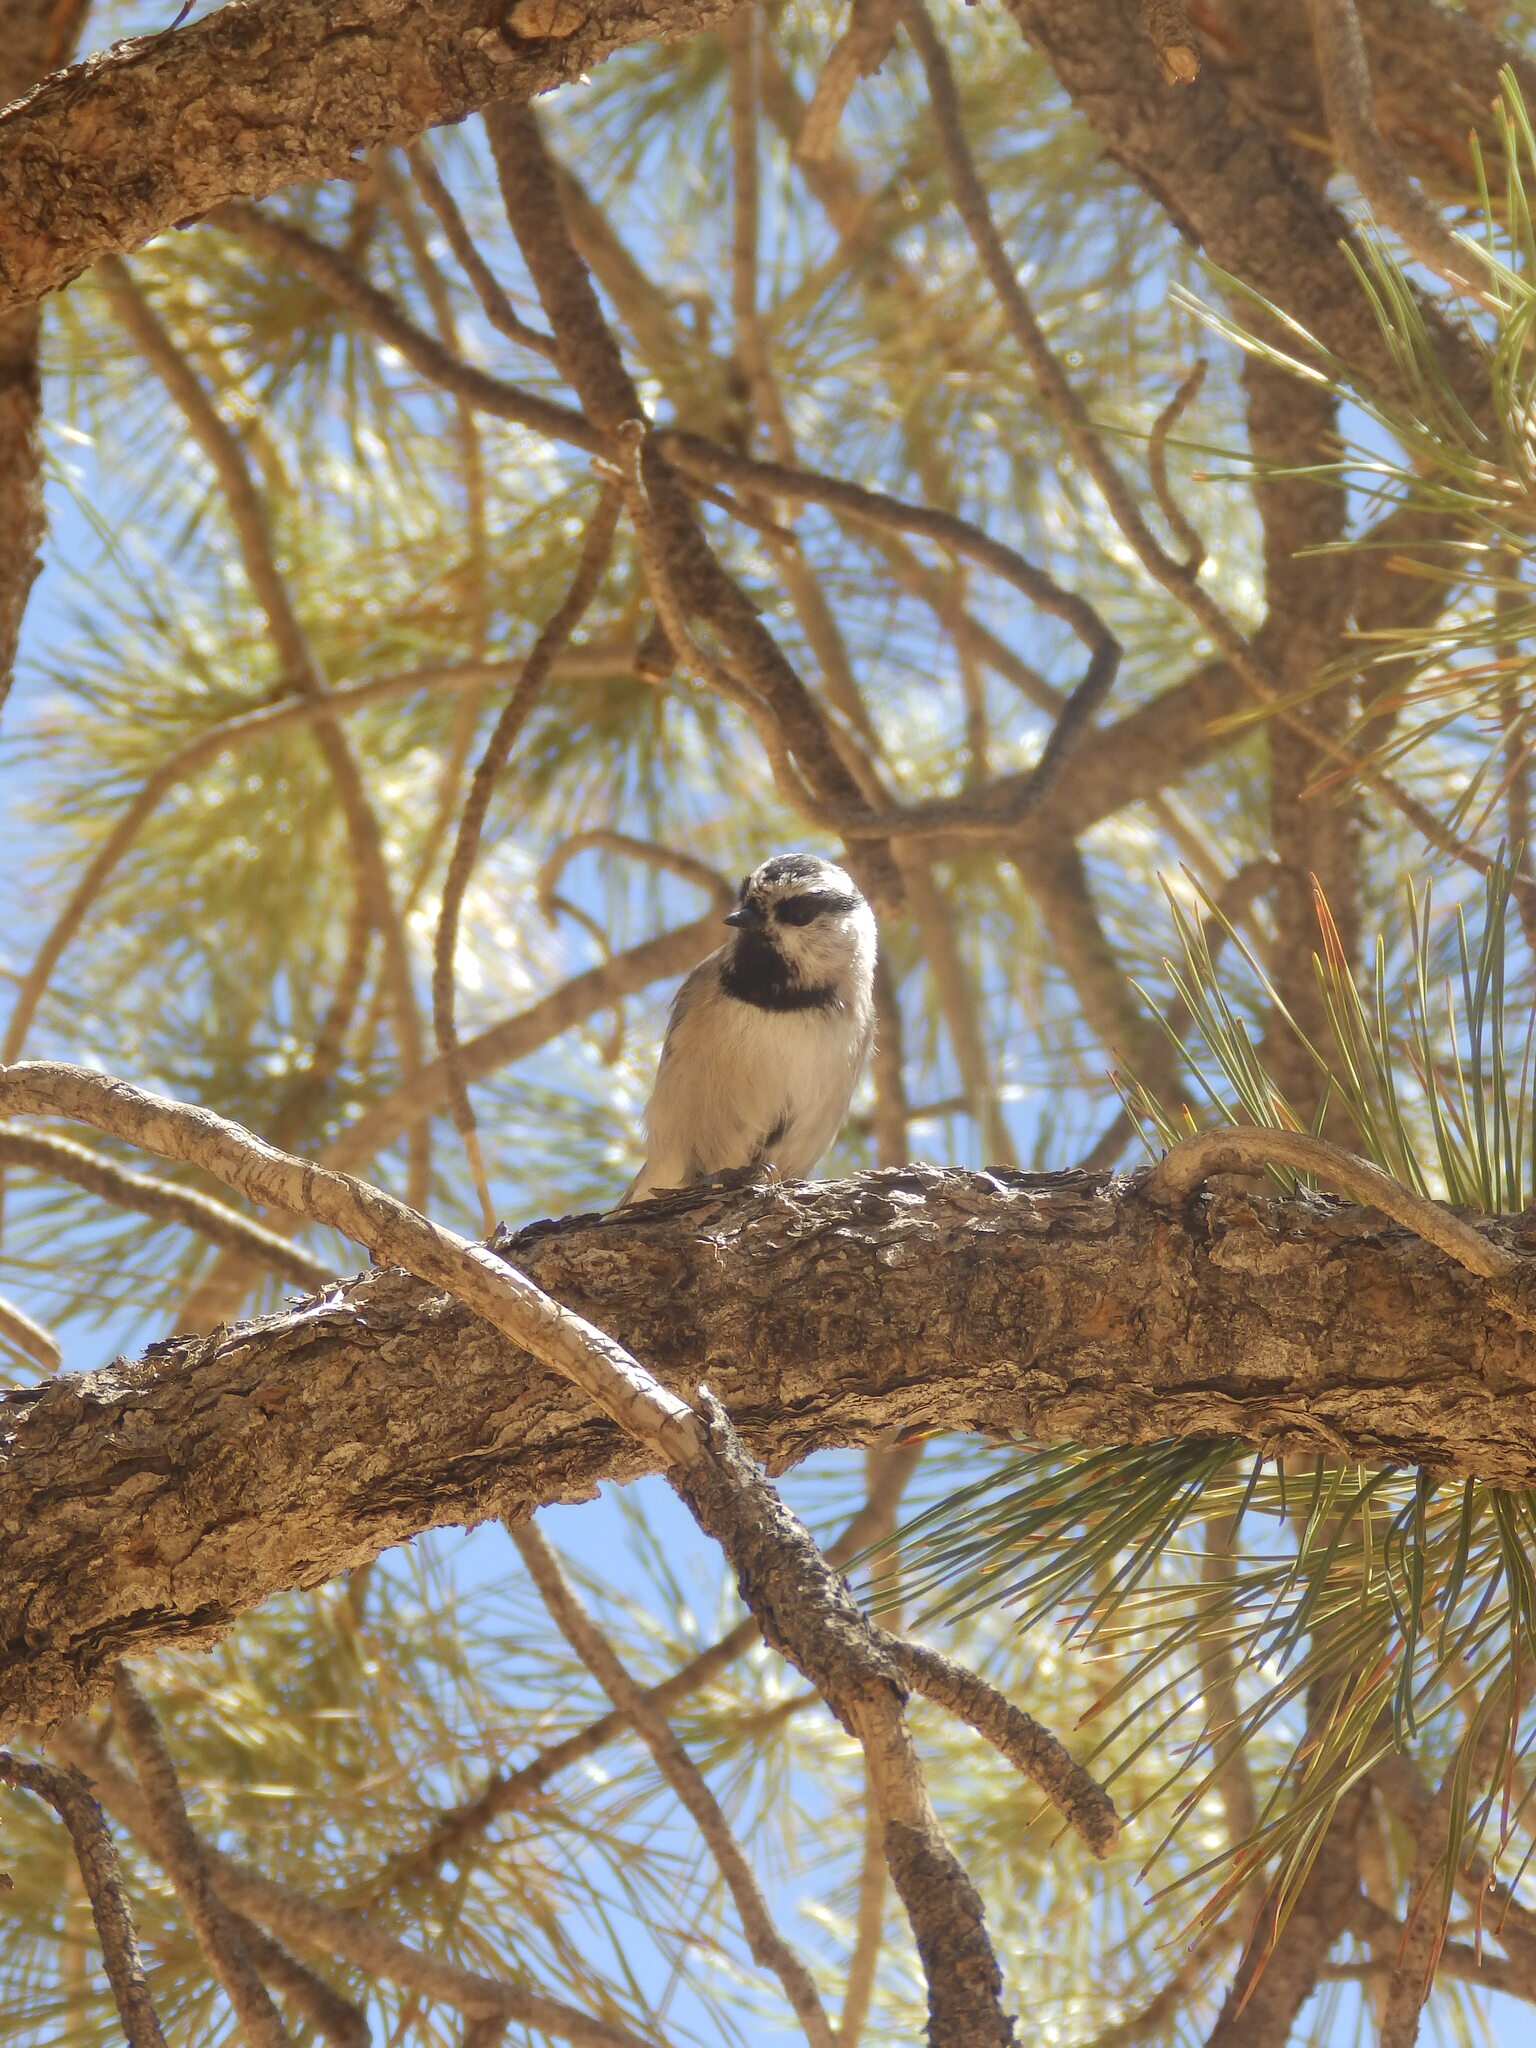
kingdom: Animalia
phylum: Chordata
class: Aves
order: Passeriformes
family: Paridae
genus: Poecile
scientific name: Poecile gambeli
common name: Mountain chickadee
